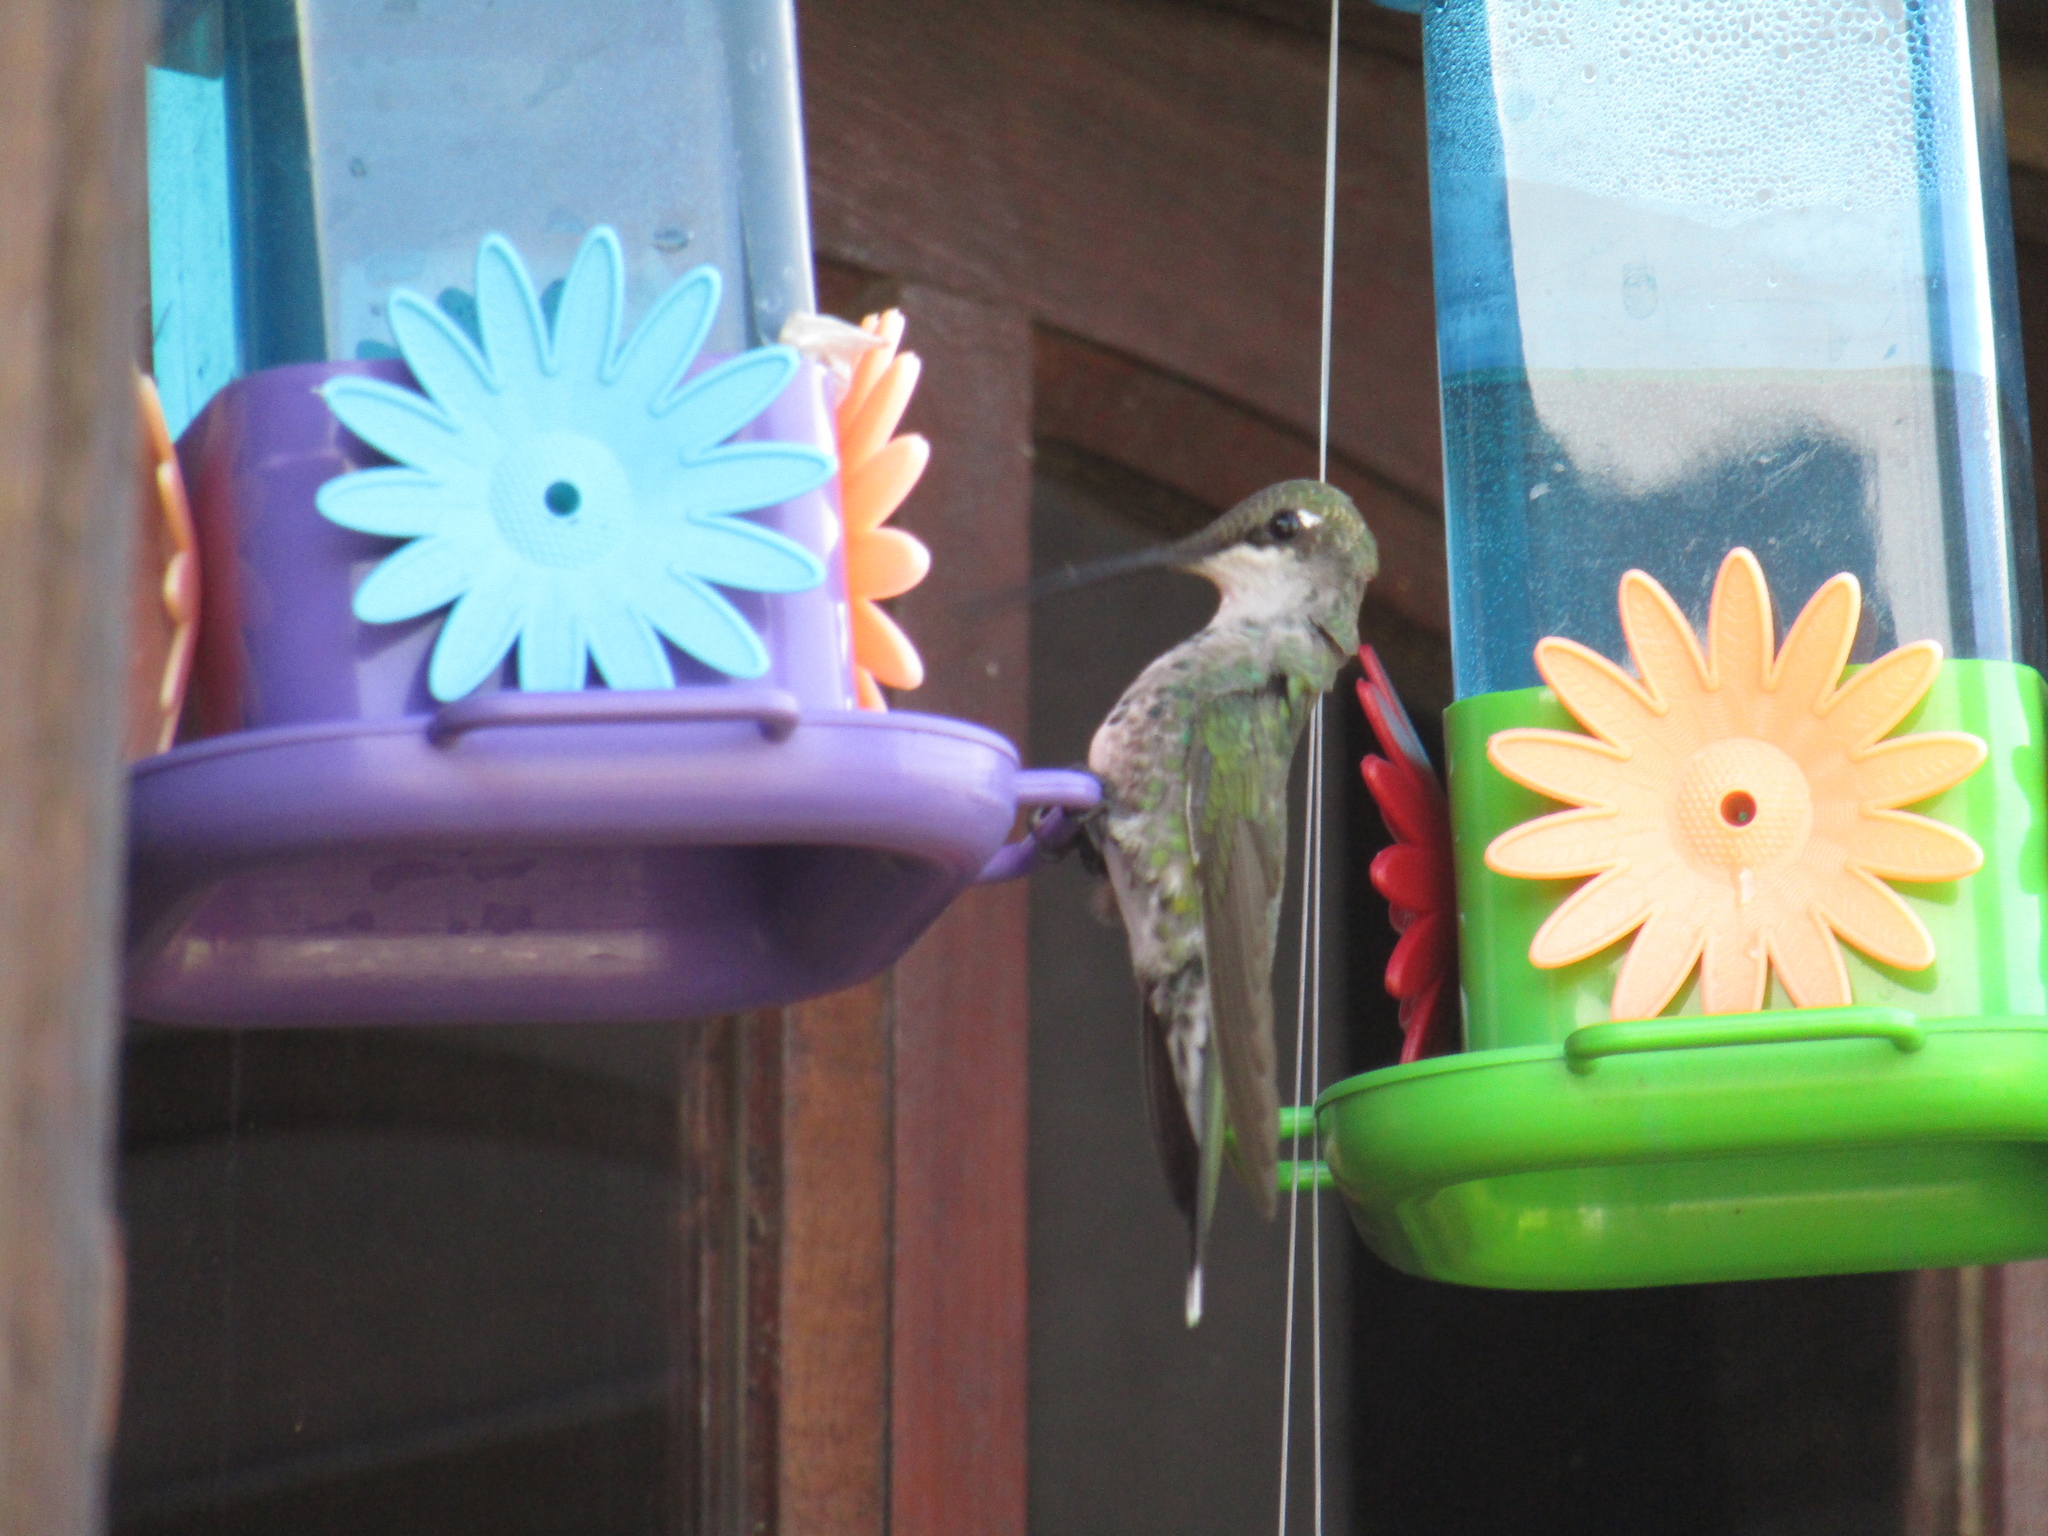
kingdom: Animalia
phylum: Chordata
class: Aves
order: Apodiformes
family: Trochilidae
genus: Heliomaster
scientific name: Heliomaster furcifer
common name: Blue-tufted starthroat
